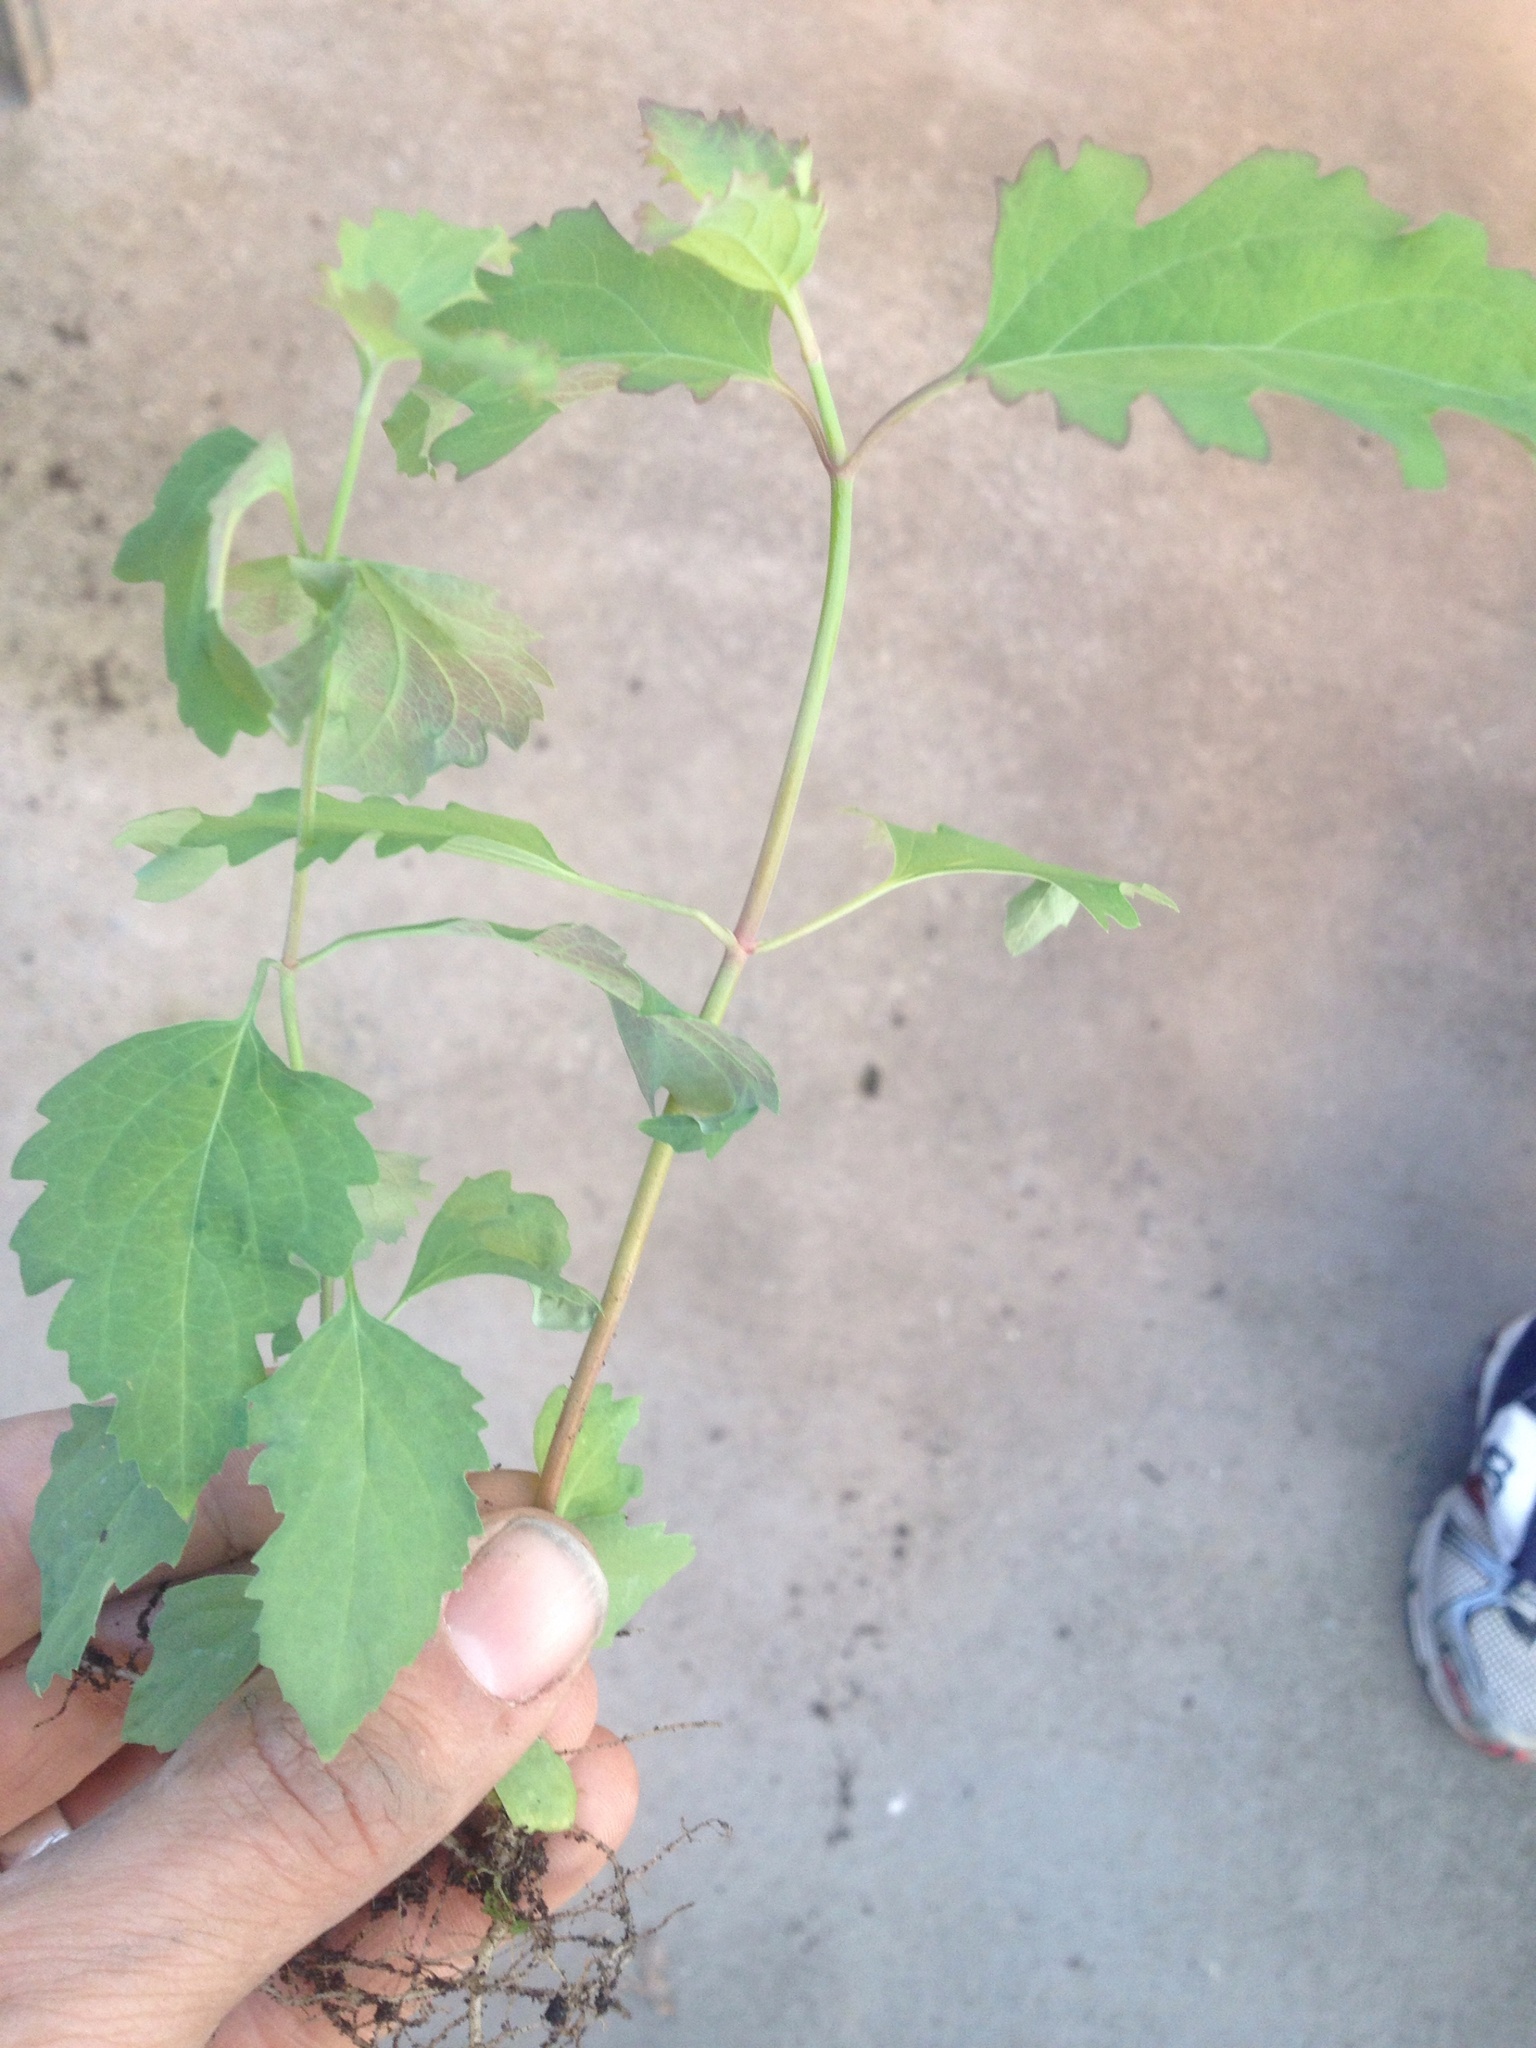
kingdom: Plantae
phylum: Tracheophyta
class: Magnoliopsida
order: Dipsacales
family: Caprifoliaceae
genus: Leycesteria
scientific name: Leycesteria formosa
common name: Himalayan honeysuckle
